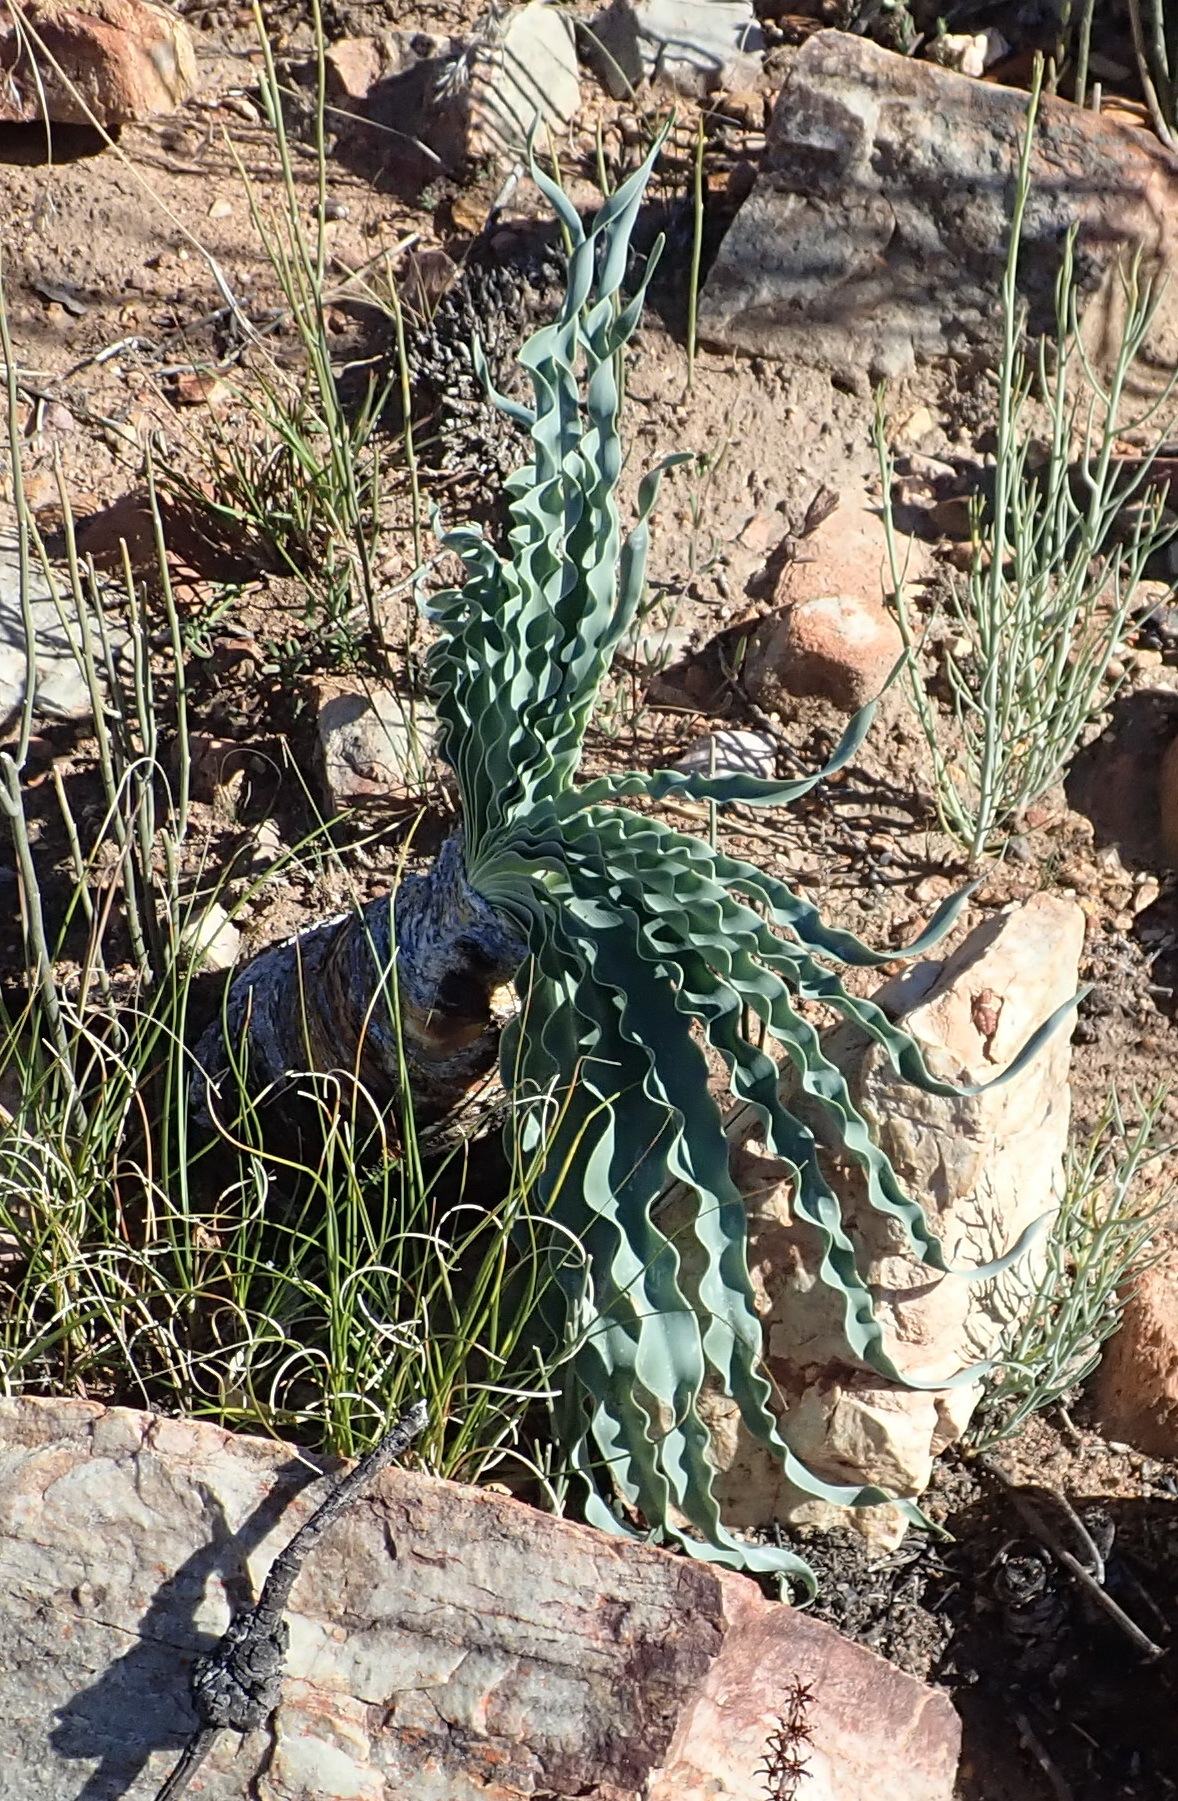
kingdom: Plantae
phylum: Tracheophyta
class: Liliopsida
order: Asparagales
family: Amaryllidaceae
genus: Boophone
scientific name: Boophone disticha
